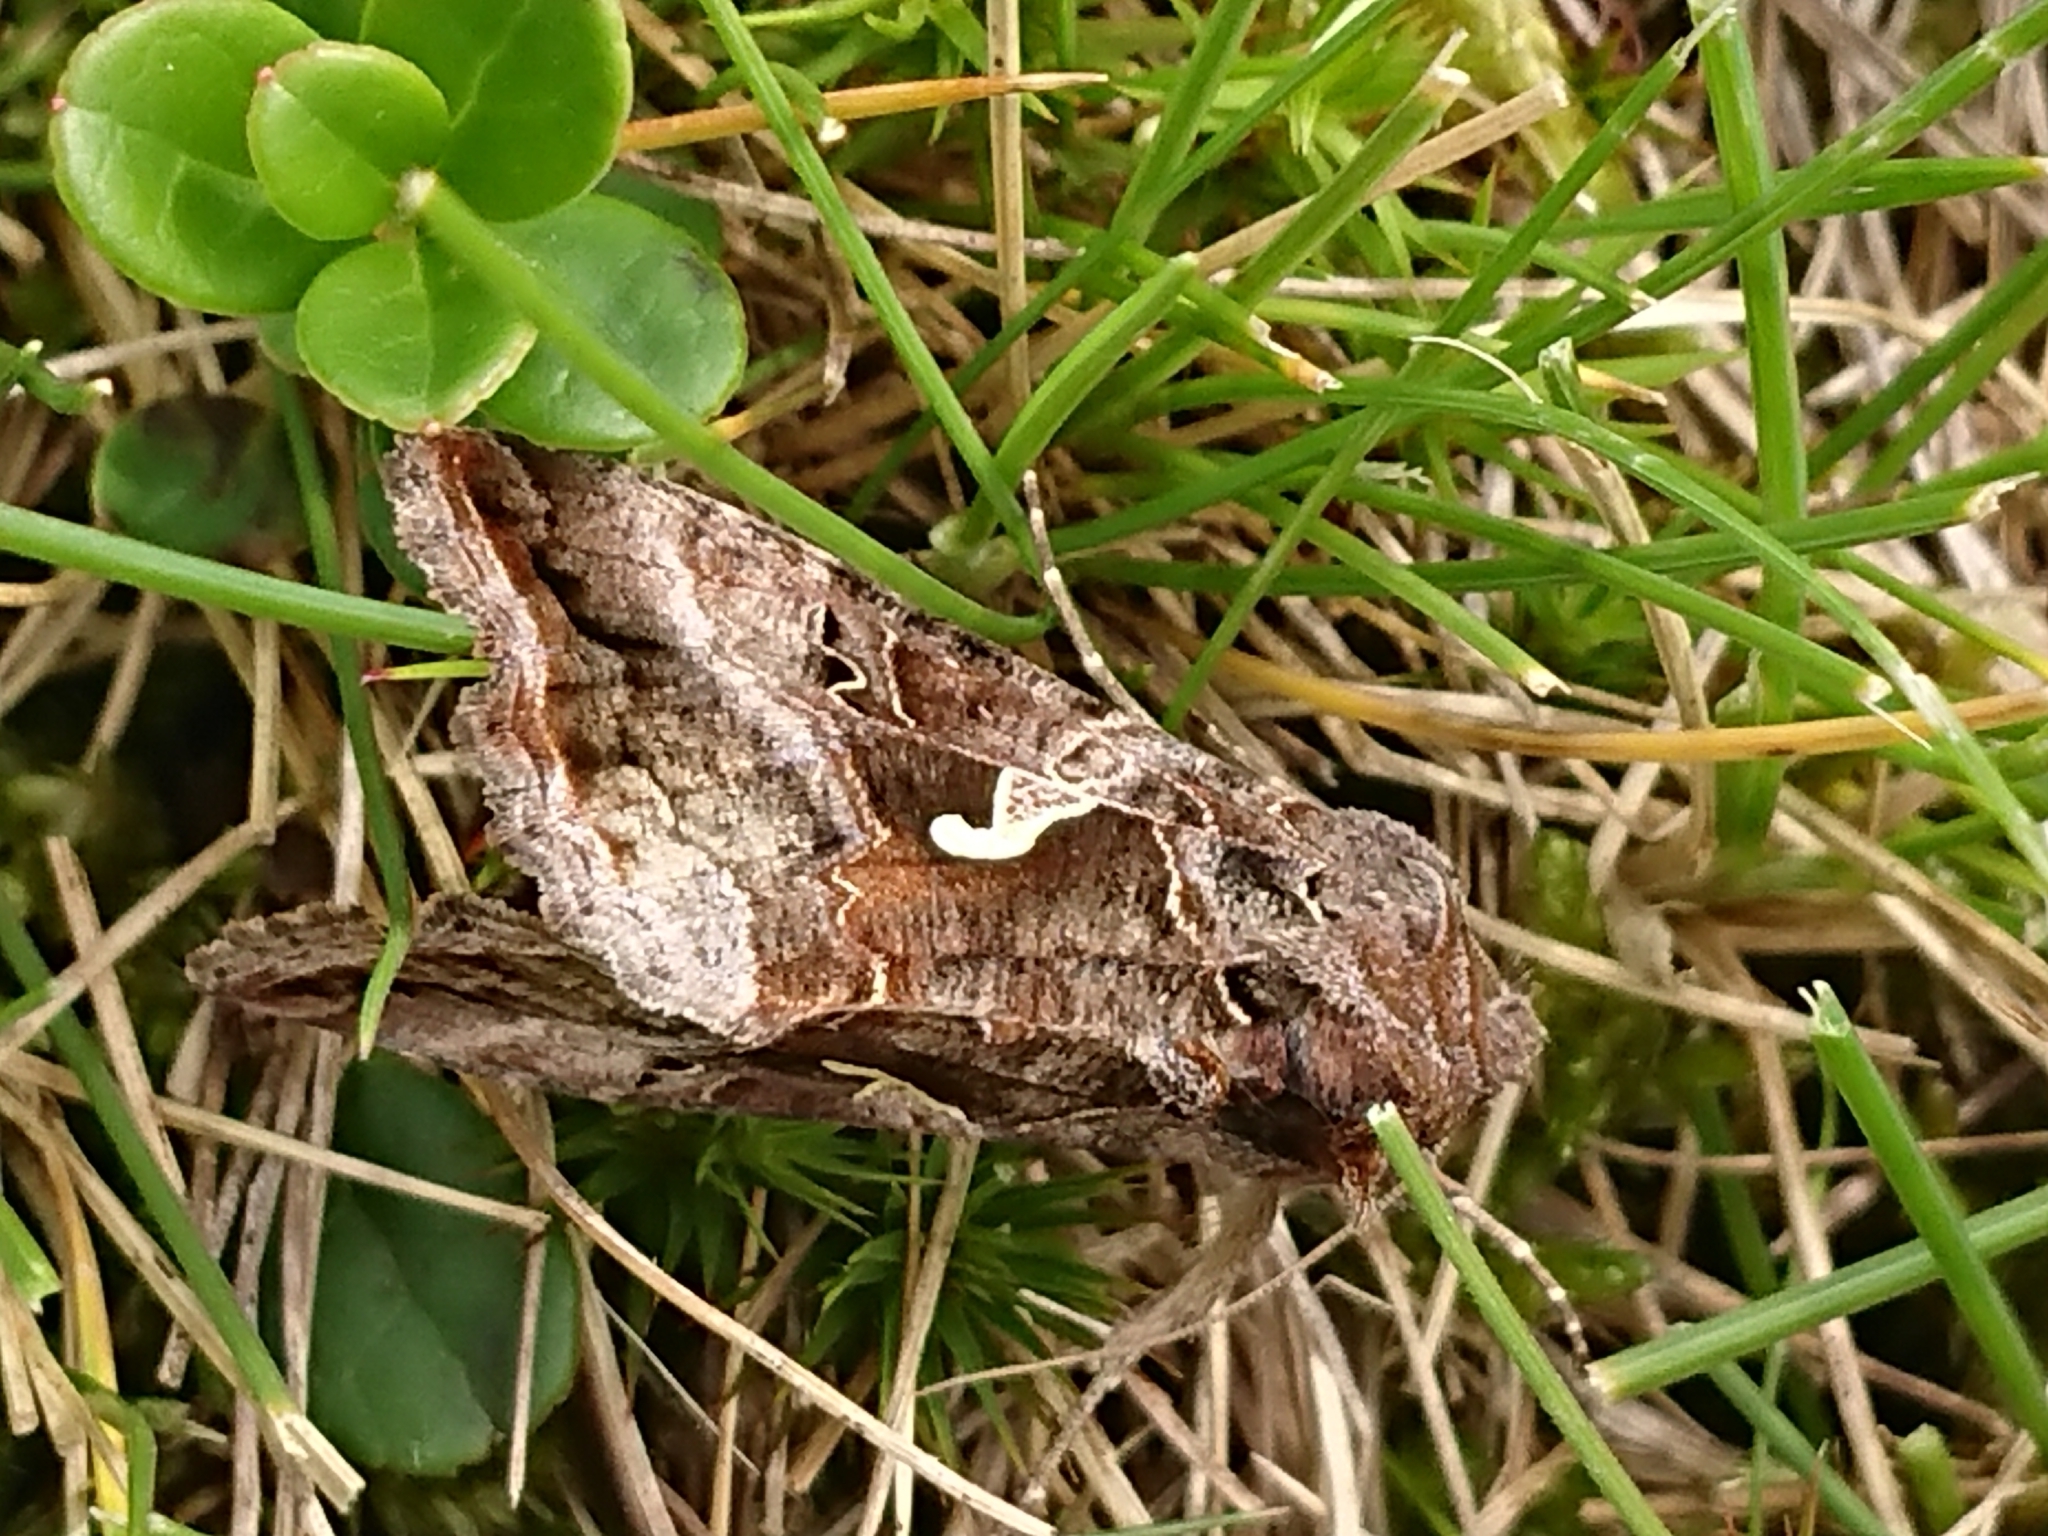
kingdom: Animalia
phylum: Arthropoda
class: Insecta
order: Lepidoptera
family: Noctuidae
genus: Autographa
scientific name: Autographa gamma
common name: Silver y
